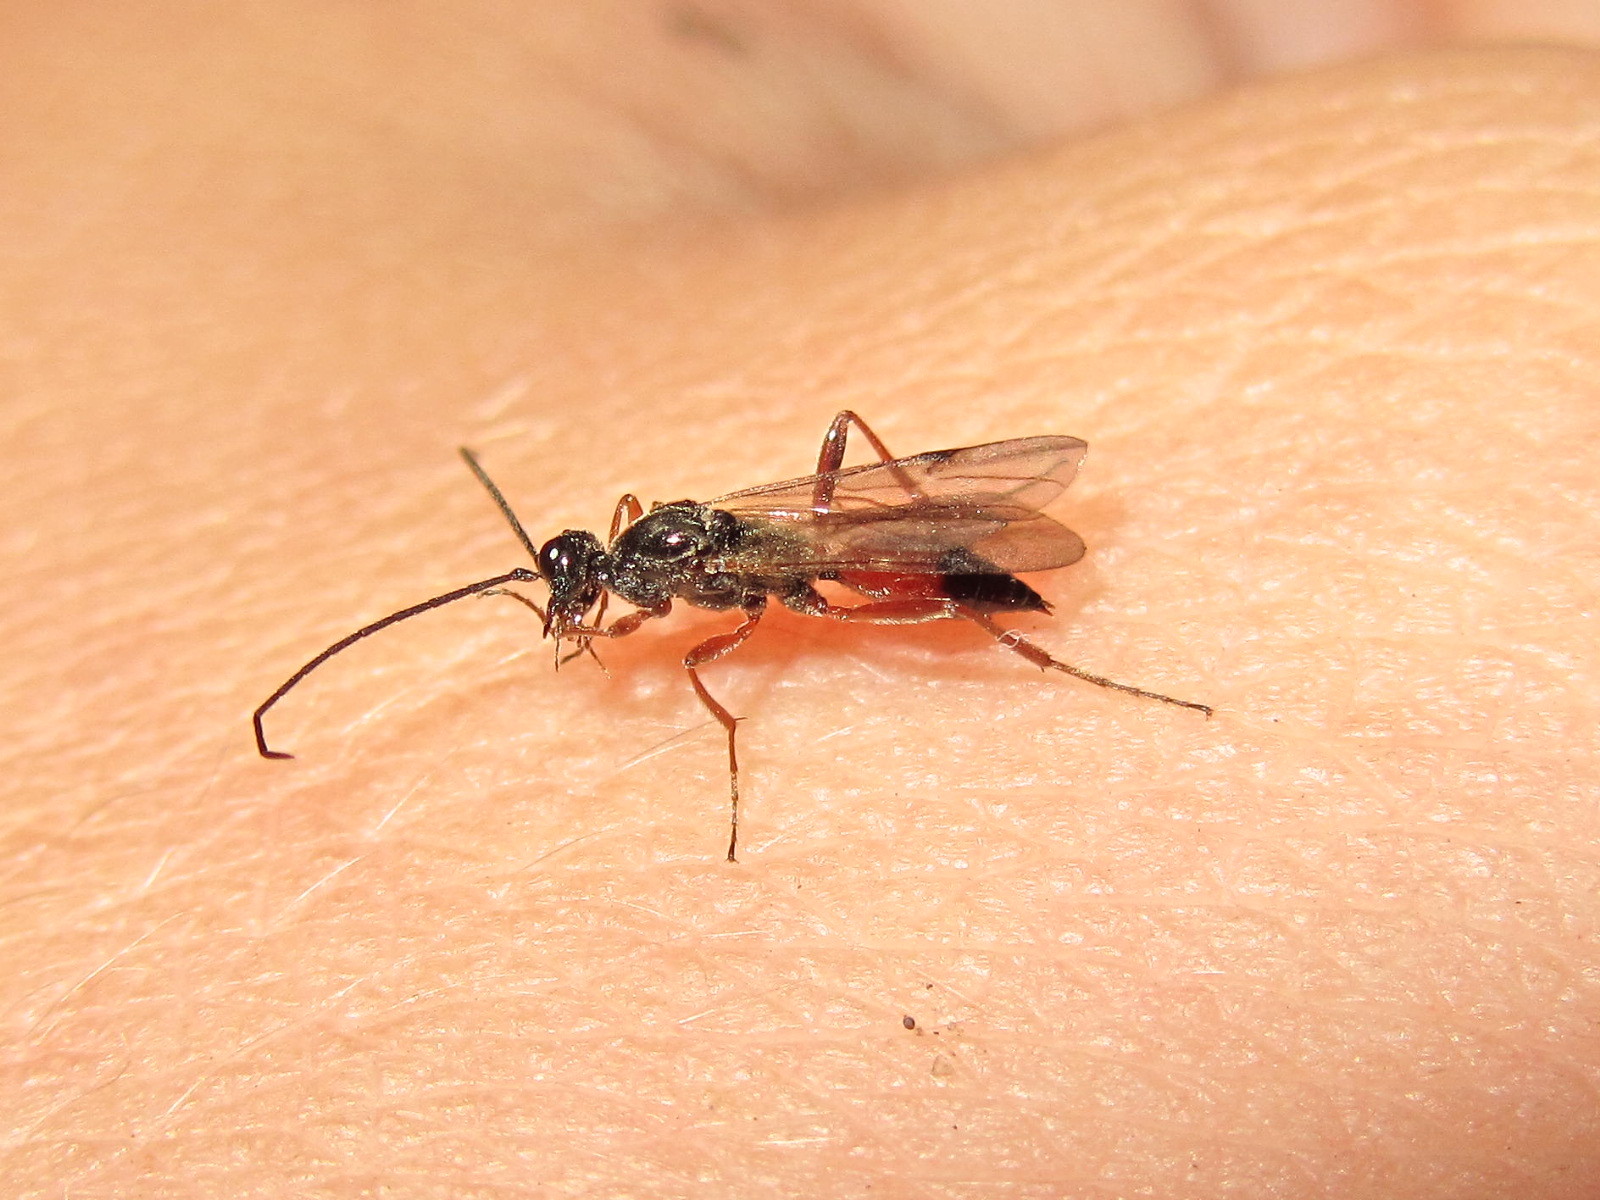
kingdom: Animalia
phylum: Arthropoda
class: Insecta
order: Hymenoptera
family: Proctotrupidae
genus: Proctotrupes
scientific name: Proctotrupes gravidator
